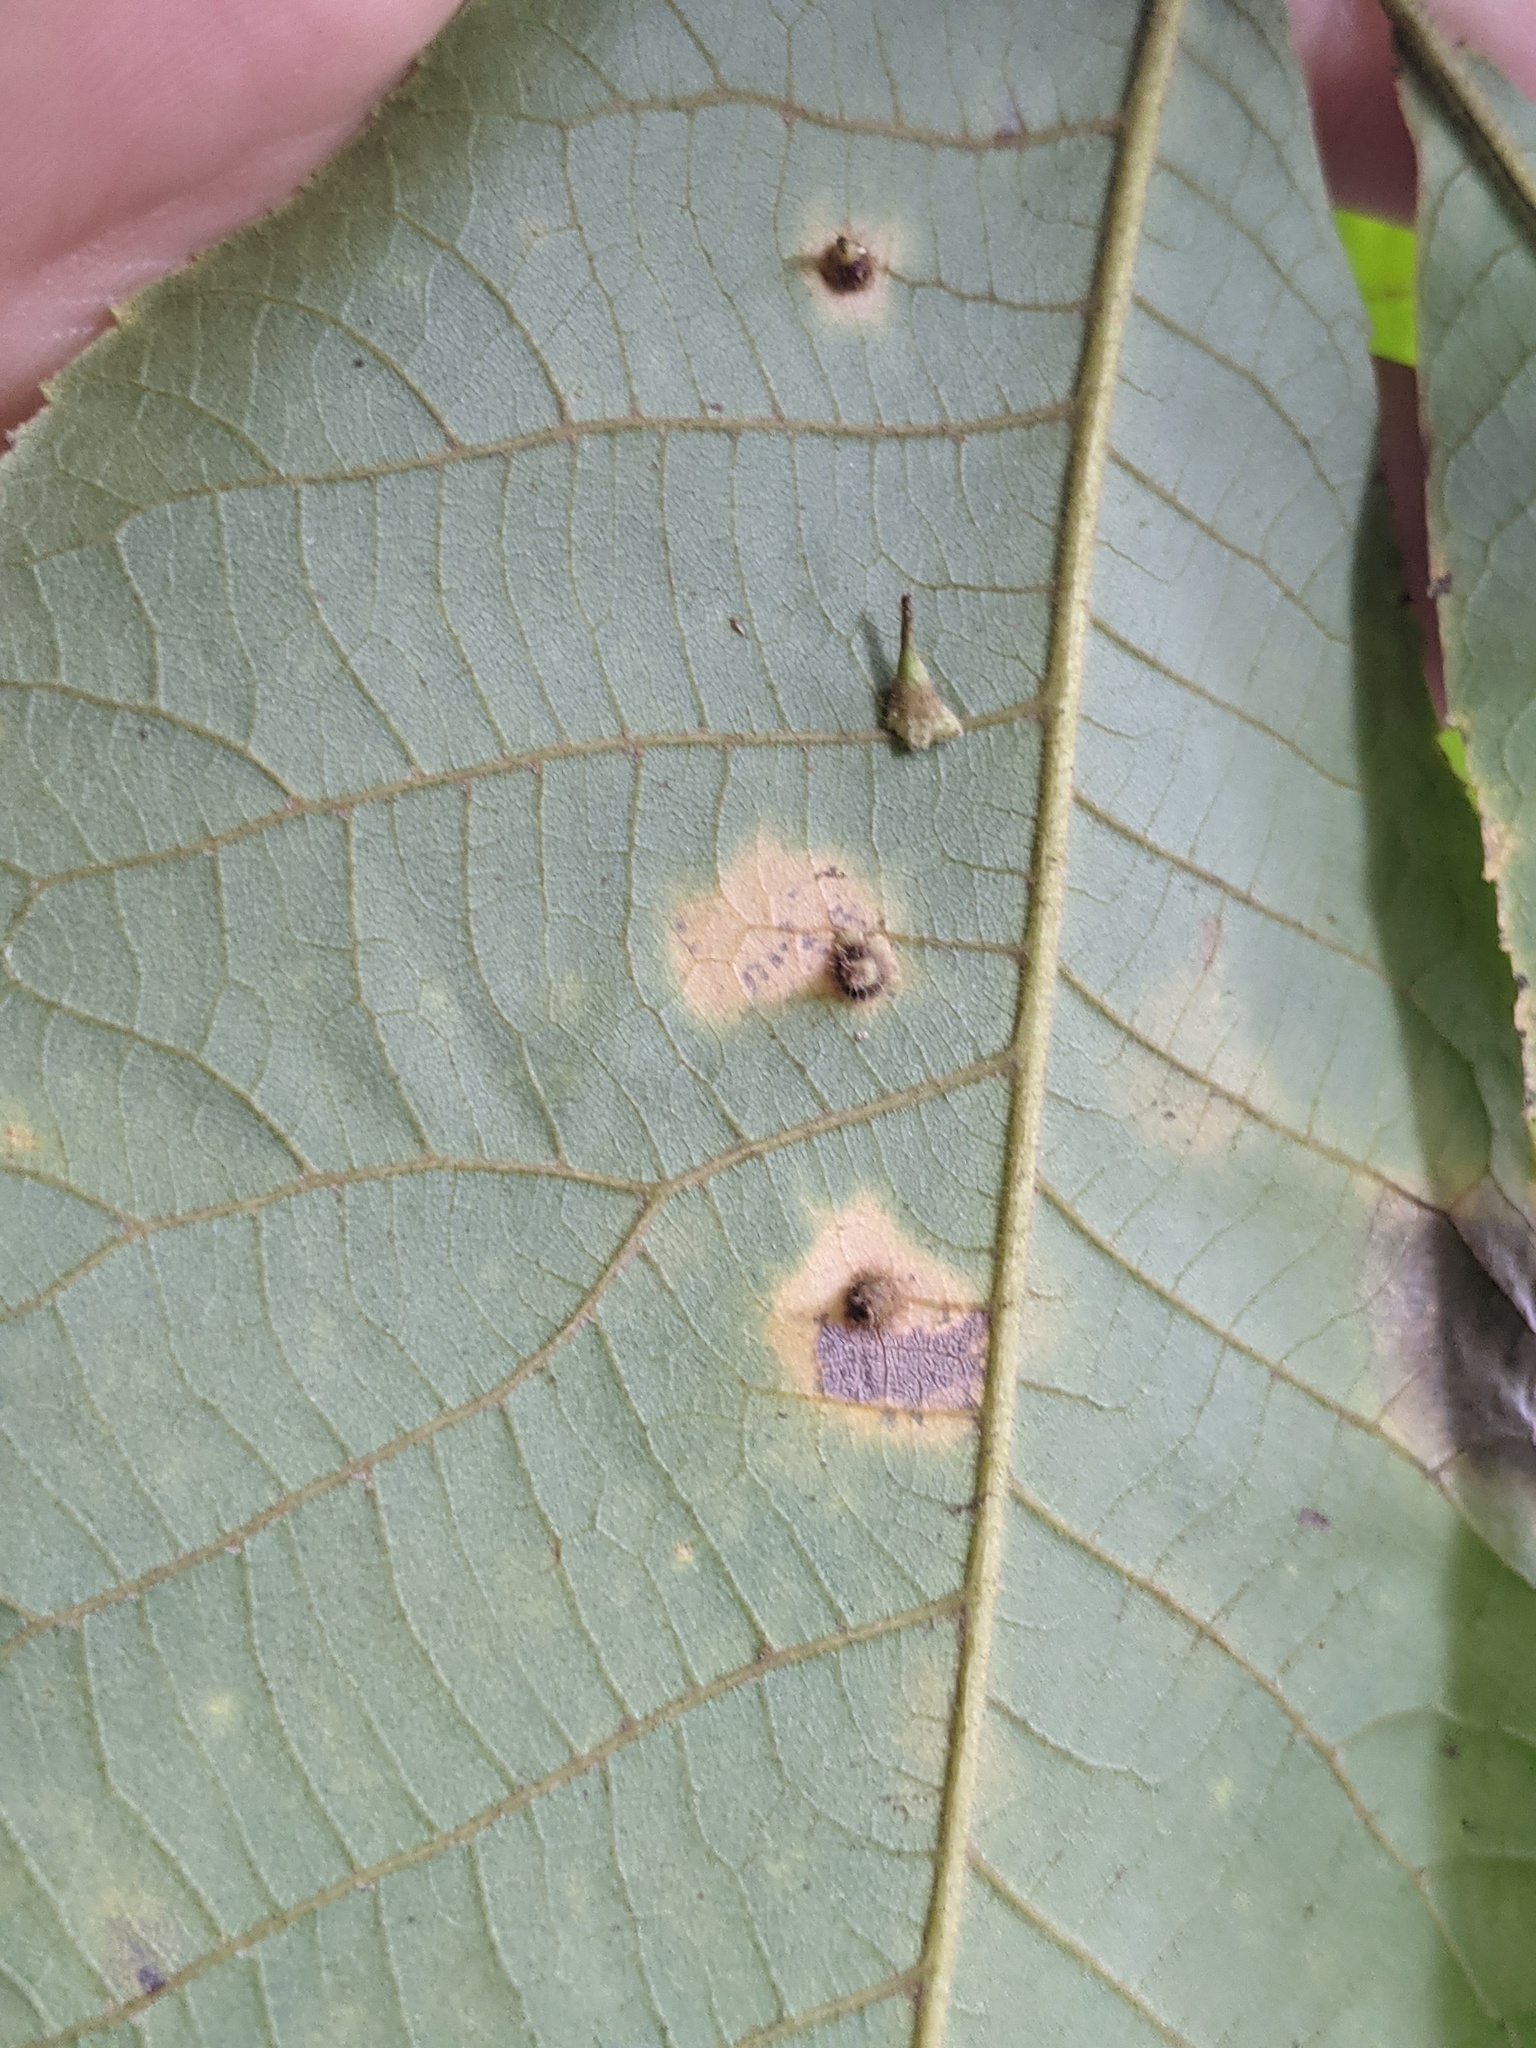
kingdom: Animalia
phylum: Arthropoda
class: Insecta
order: Diptera
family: Cecidomyiidae
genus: Caryomyia
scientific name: Caryomyia inclinata
